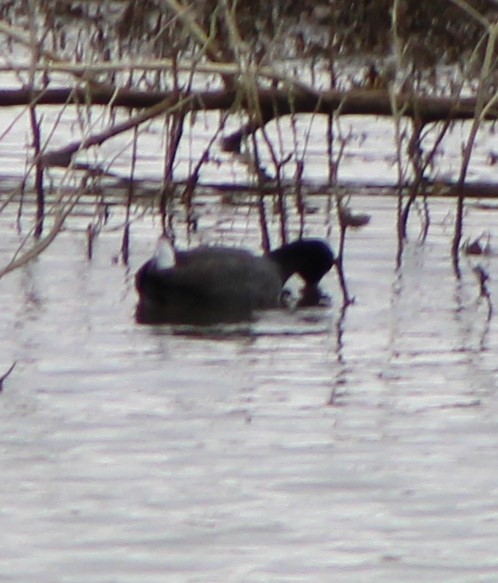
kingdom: Animalia
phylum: Chordata
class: Aves
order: Gruiformes
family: Rallidae
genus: Fulica
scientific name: Fulica americana
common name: American coot
